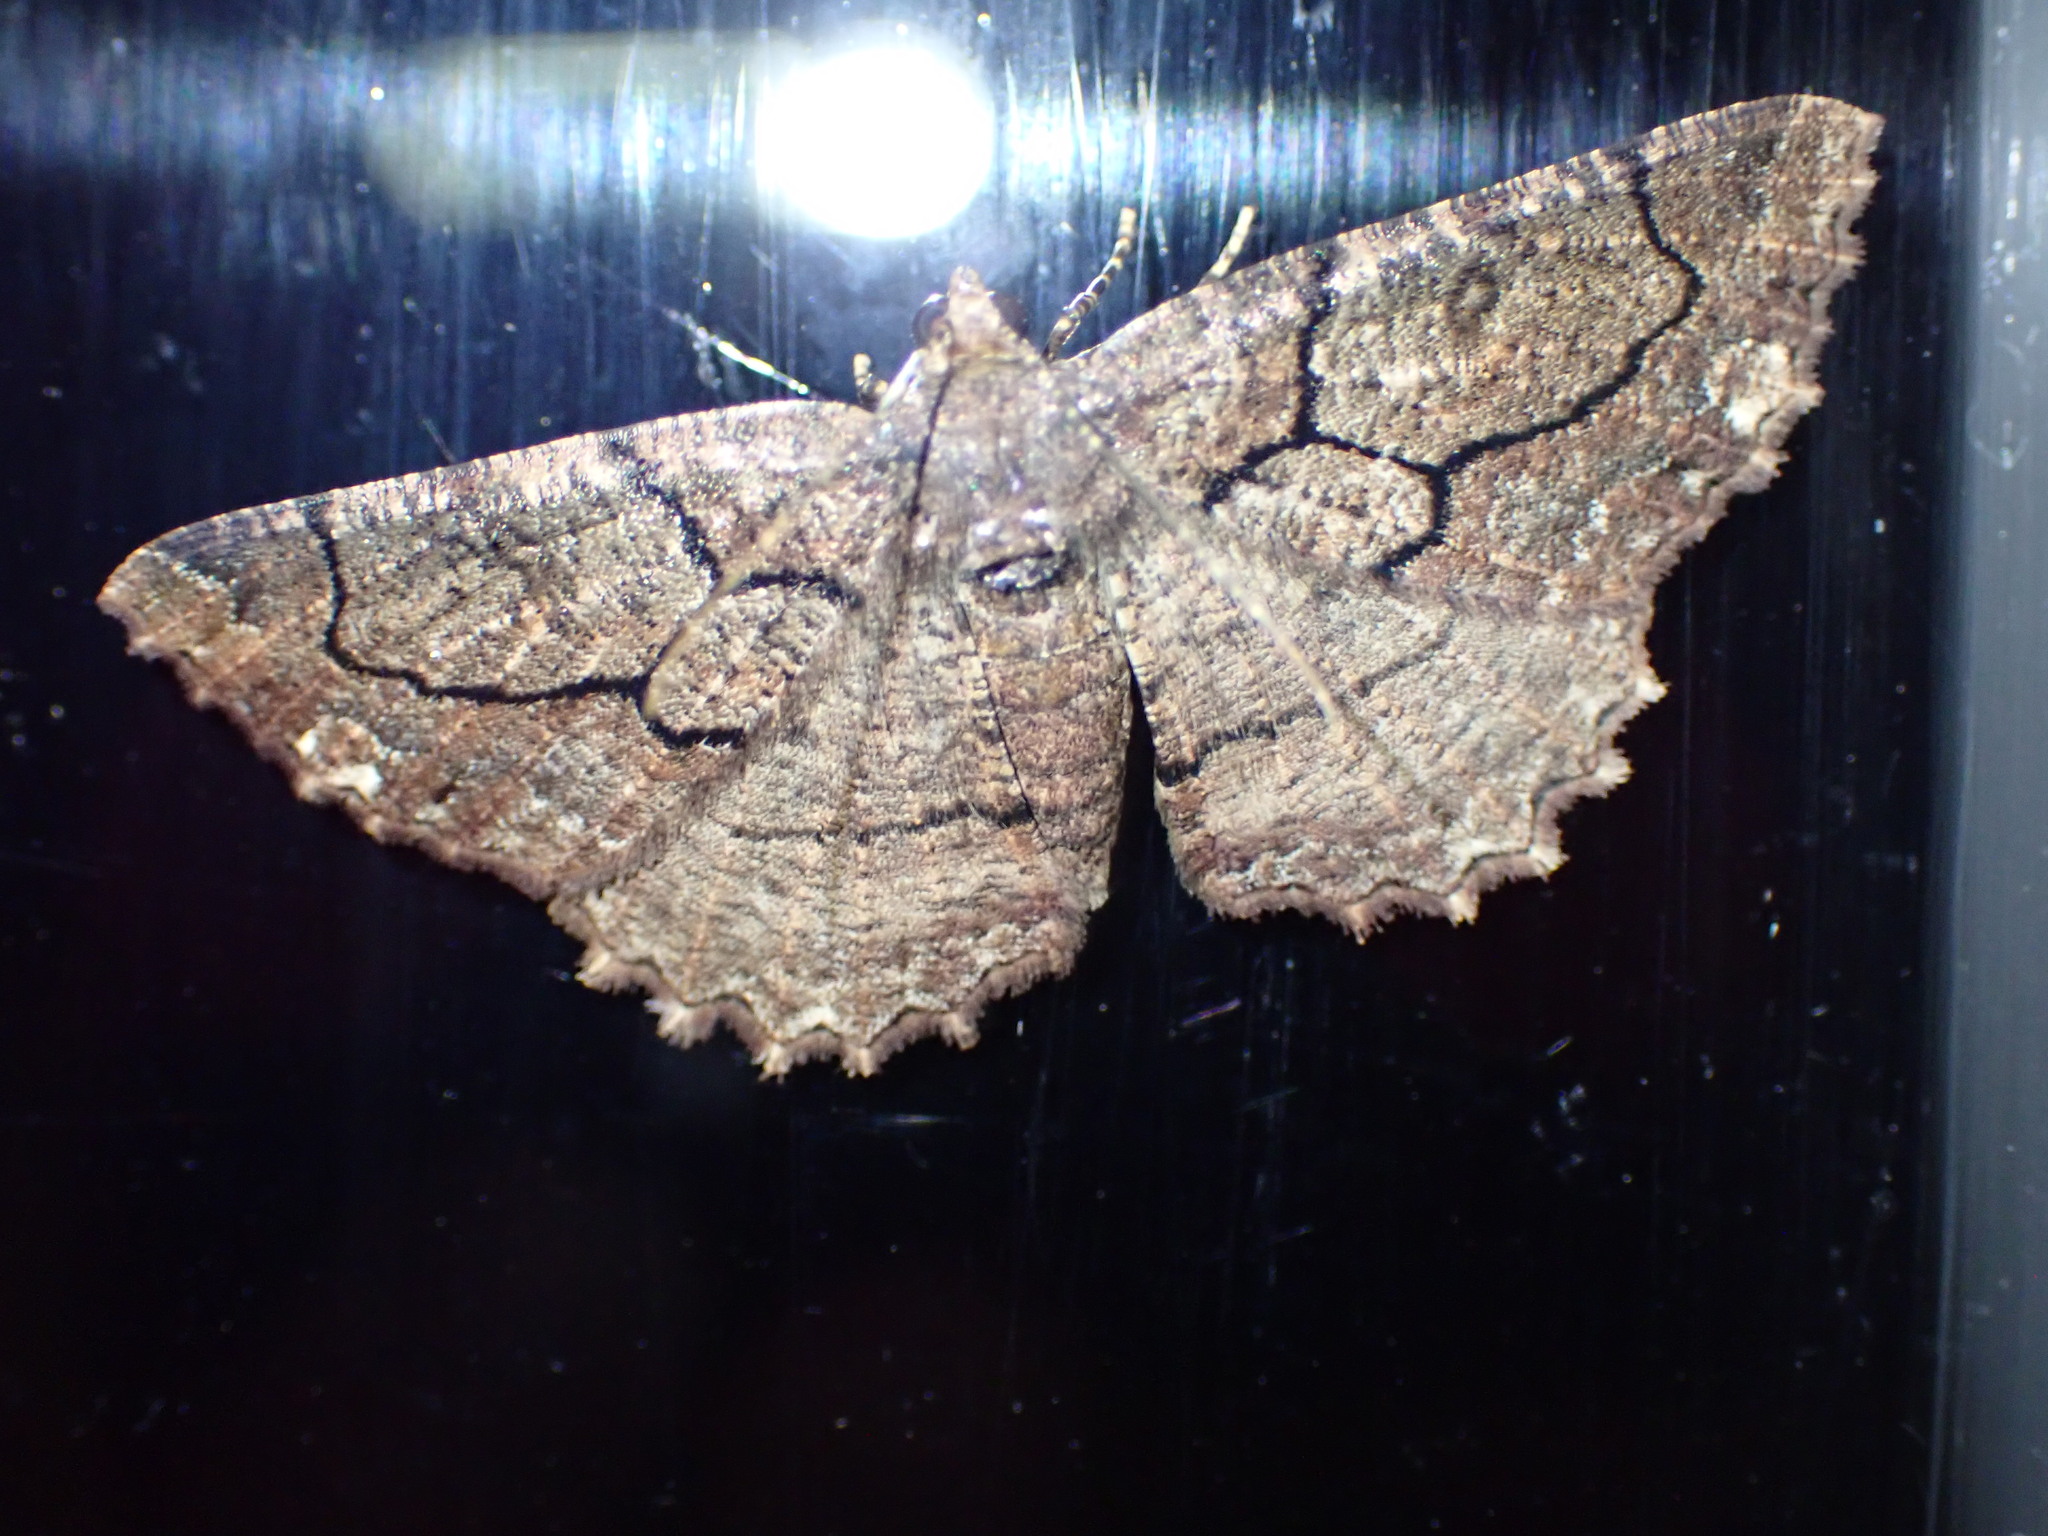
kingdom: Animalia
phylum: Arthropoda
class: Insecta
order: Lepidoptera
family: Geometridae
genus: Xylopteryx
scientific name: Xylopteryx protearia
